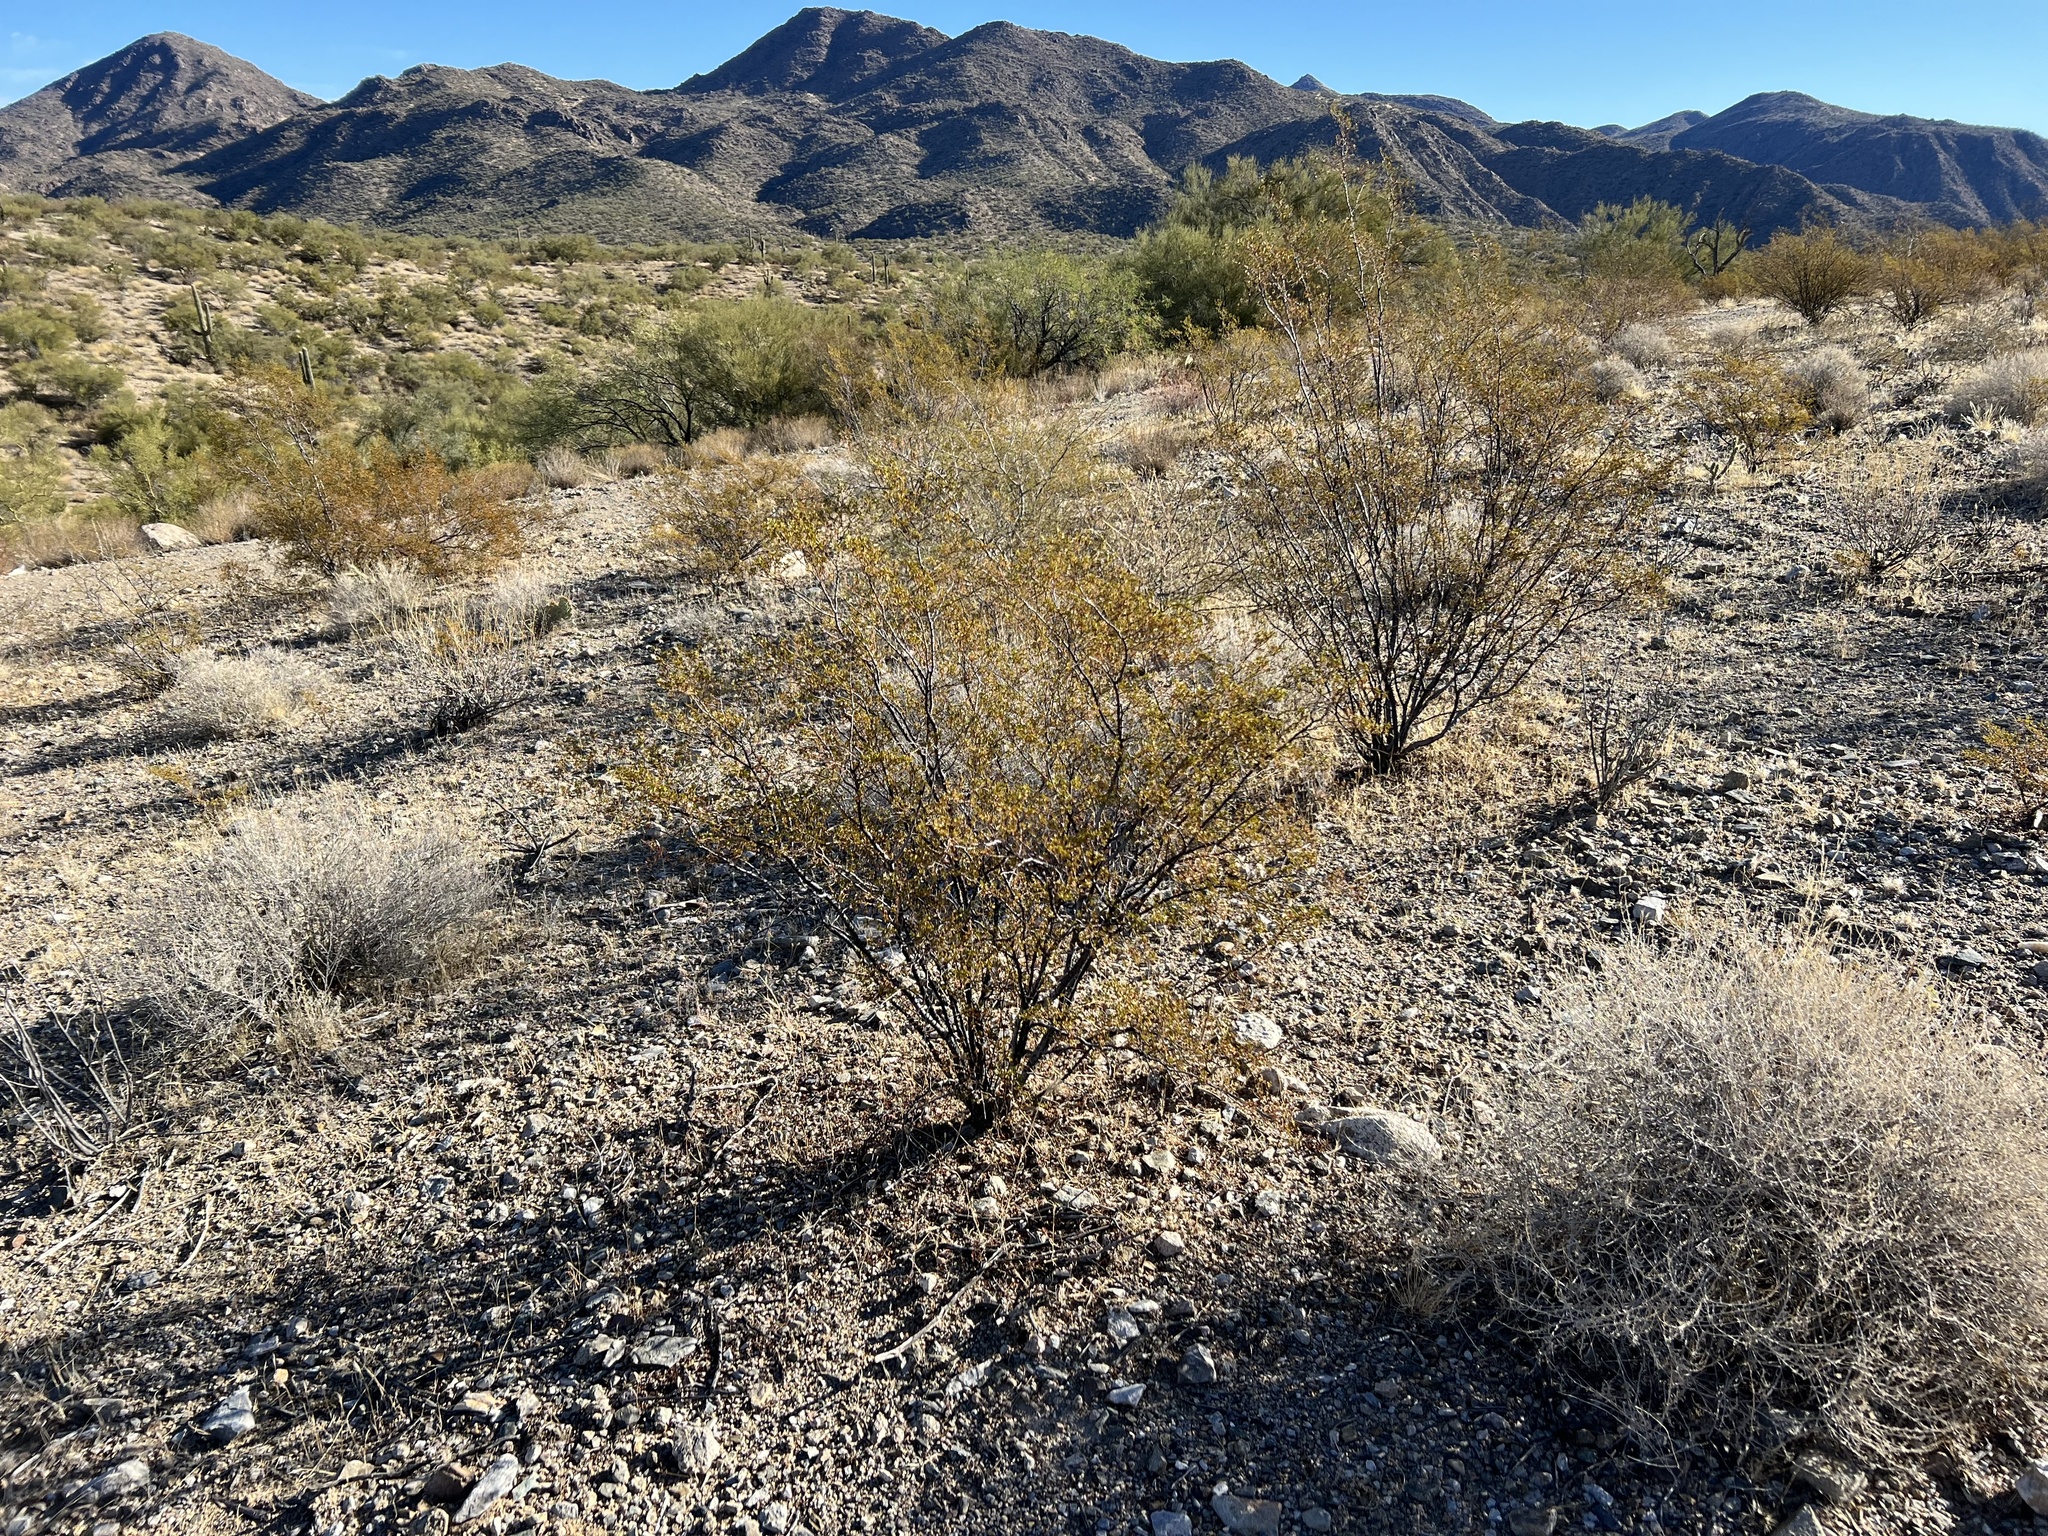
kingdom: Plantae
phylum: Tracheophyta
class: Magnoliopsida
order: Zygophyllales
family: Zygophyllaceae
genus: Larrea
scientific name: Larrea tridentata
